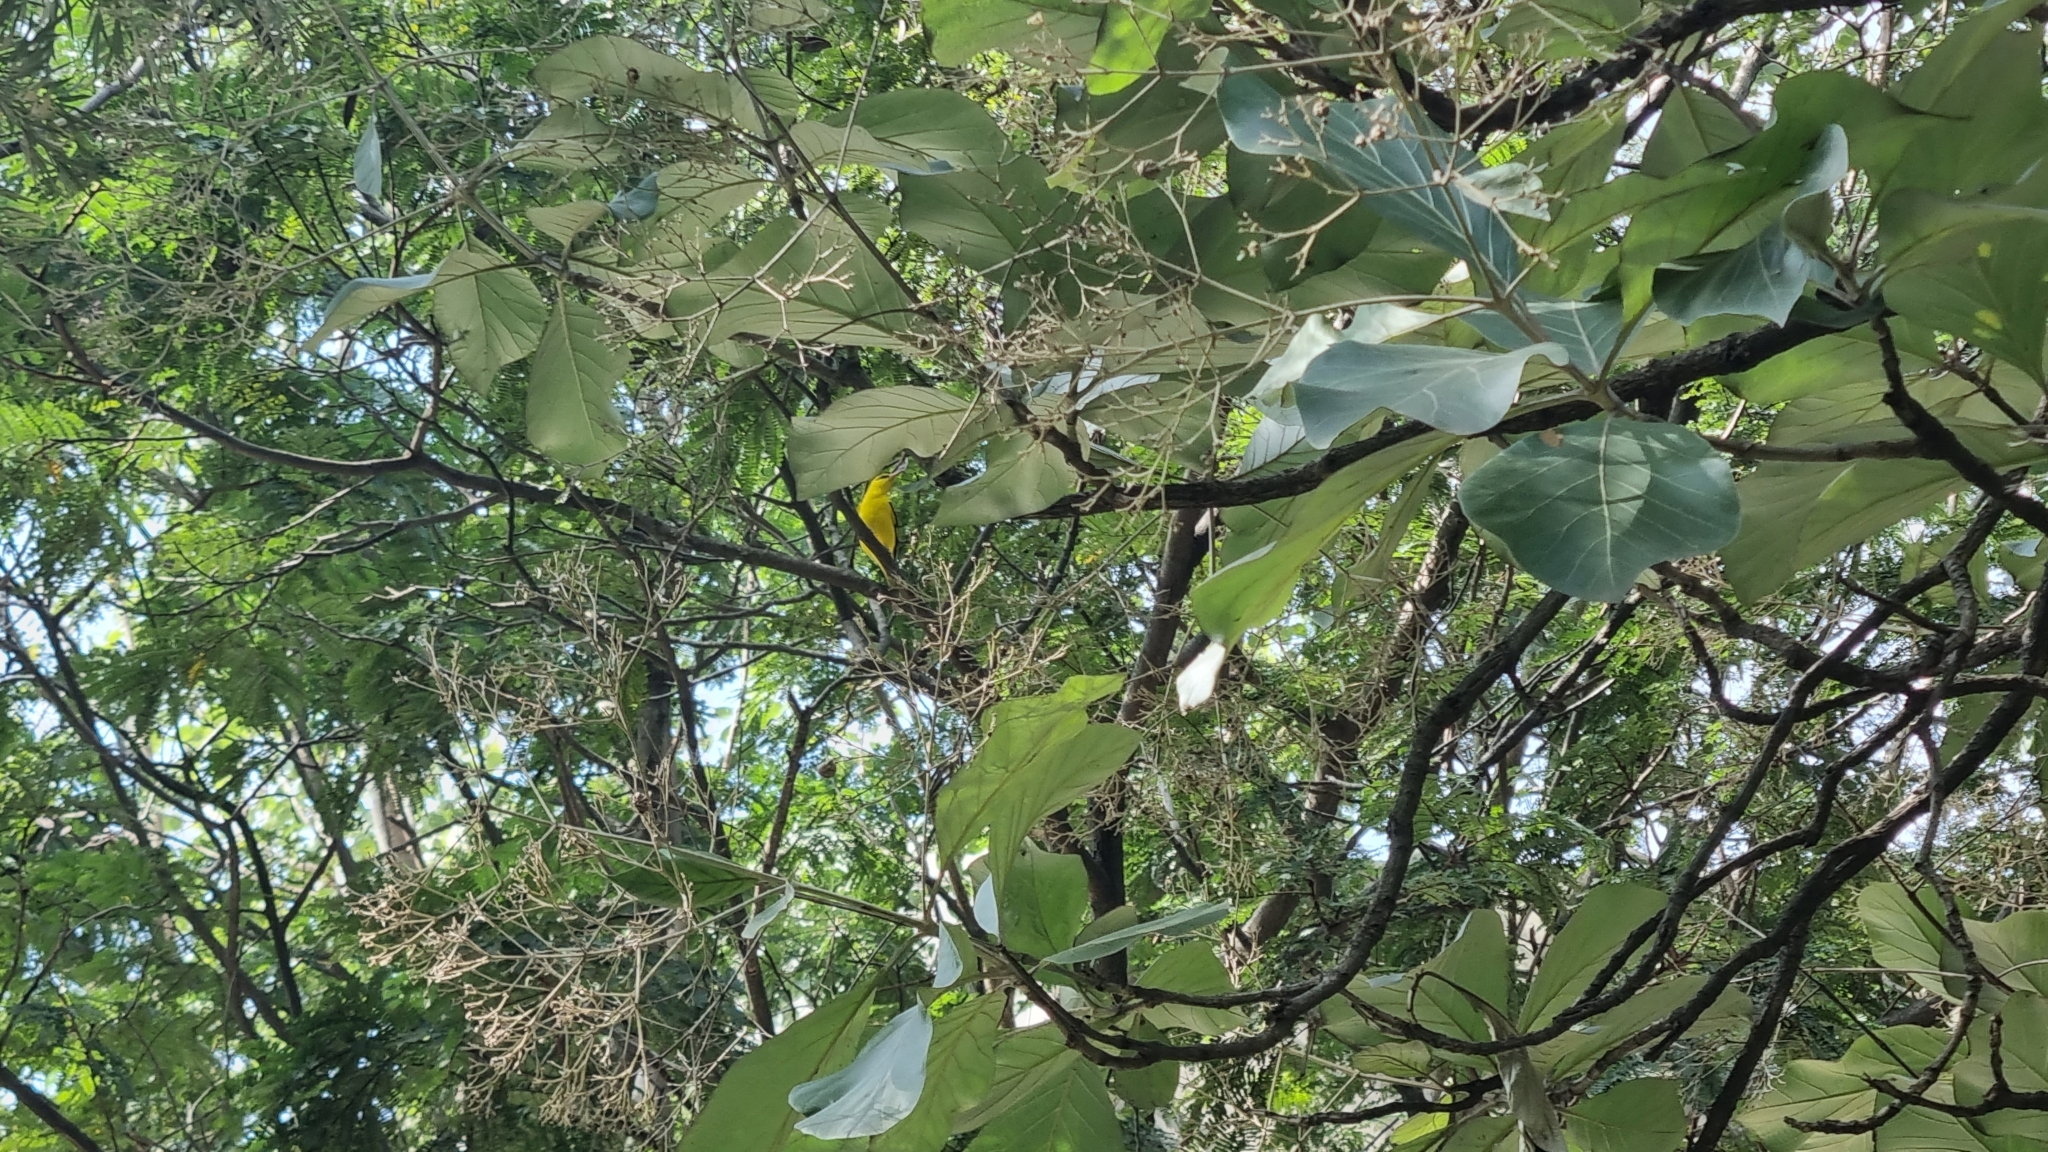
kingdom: Animalia
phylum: Chordata
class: Aves
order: Passeriformes
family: Oriolidae
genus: Oriolus
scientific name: Oriolus kundoo
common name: Indian golden oriole
